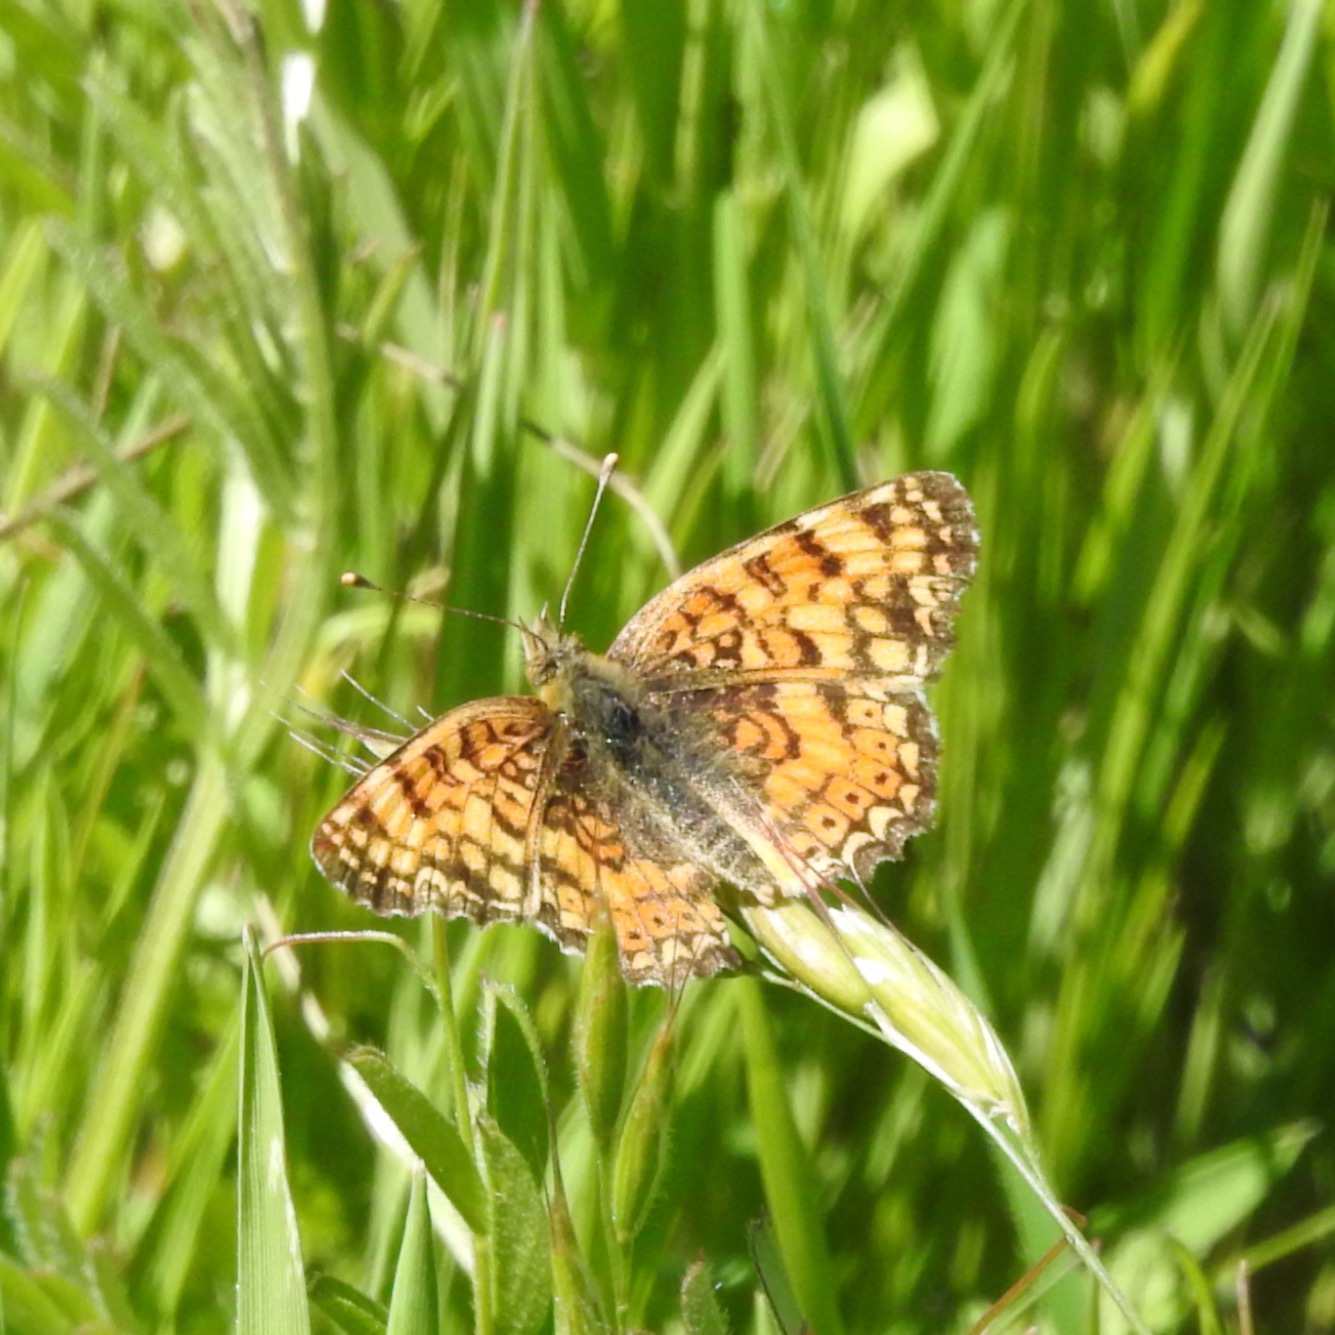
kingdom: Animalia
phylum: Arthropoda
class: Insecta
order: Lepidoptera
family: Nymphalidae
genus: Eresia
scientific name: Eresia aveyrona
